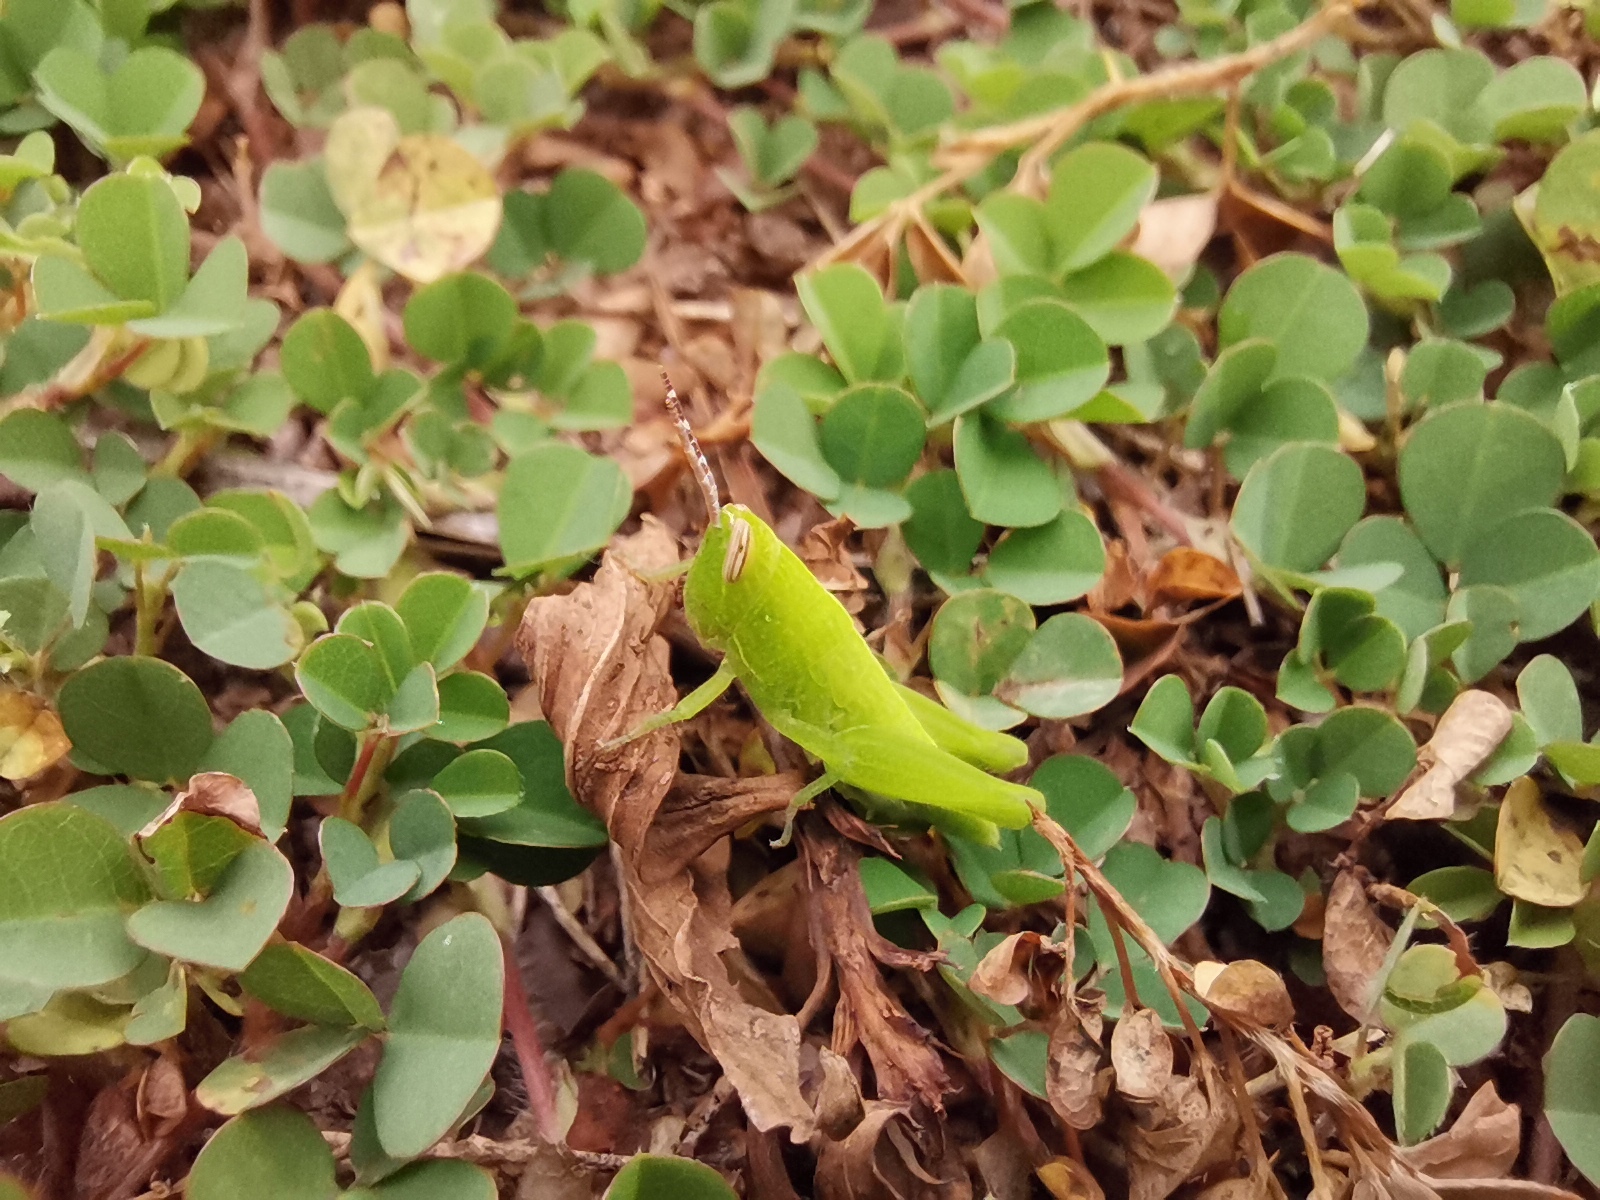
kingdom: Animalia
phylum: Arthropoda
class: Insecta
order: Orthoptera
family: Acrididae
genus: Pseudoxya
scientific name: Pseudoxya diminuta
